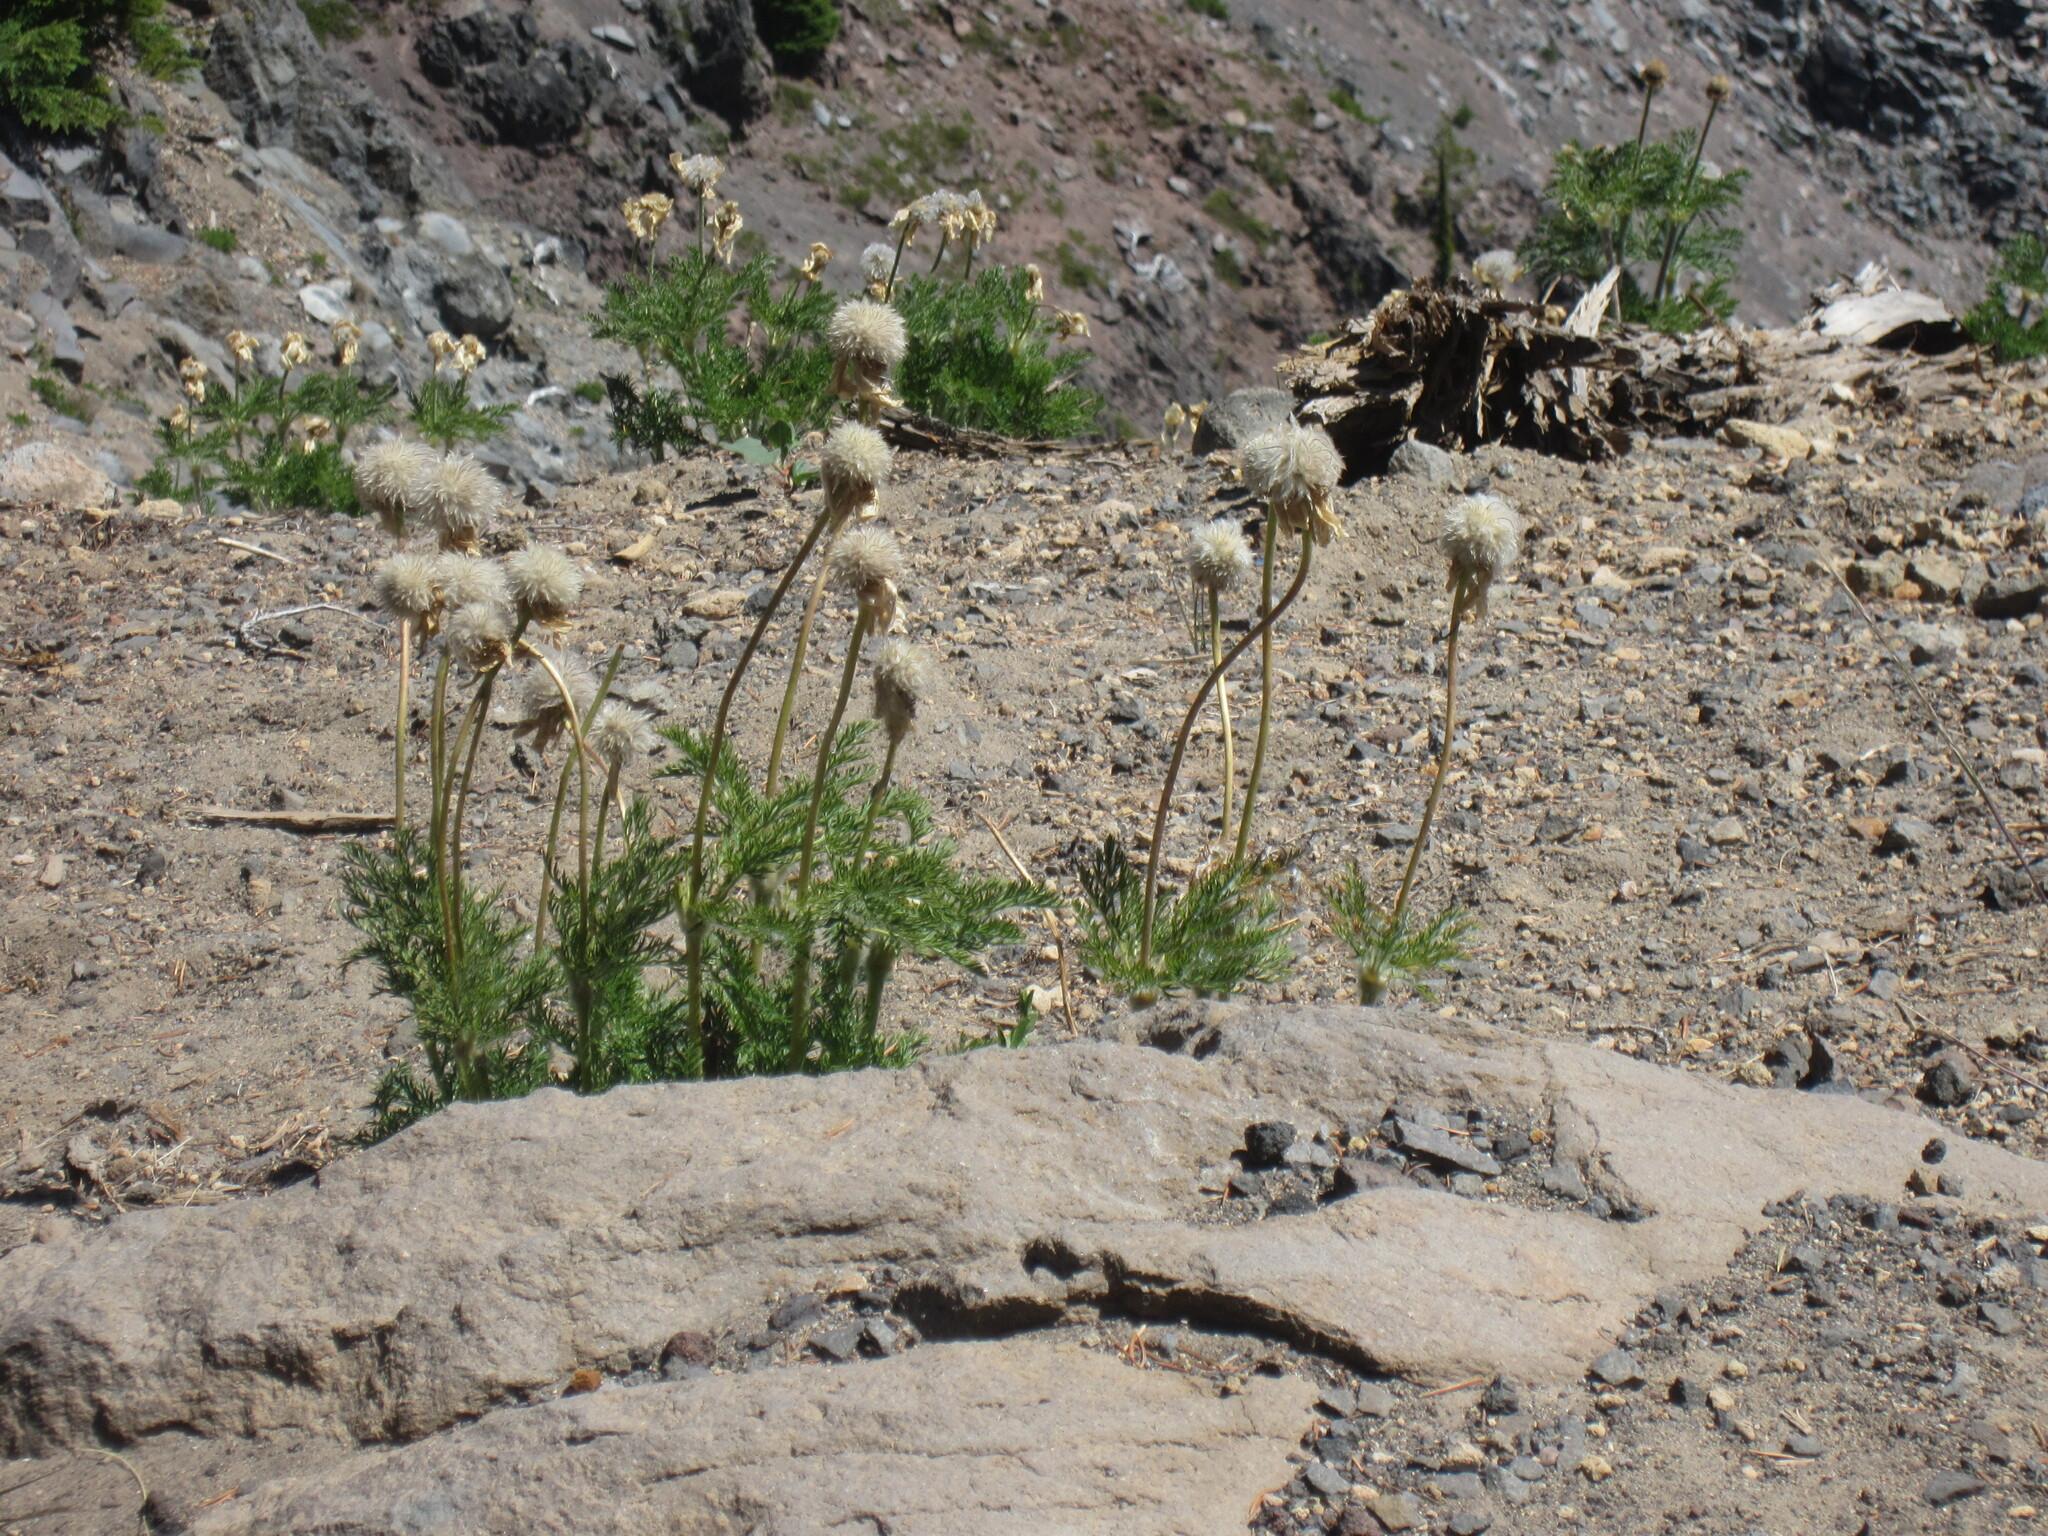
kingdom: Plantae
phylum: Tracheophyta
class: Magnoliopsida
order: Ranunculales
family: Ranunculaceae
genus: Pulsatilla
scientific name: Pulsatilla occidentalis
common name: Mountain pasqueflower
